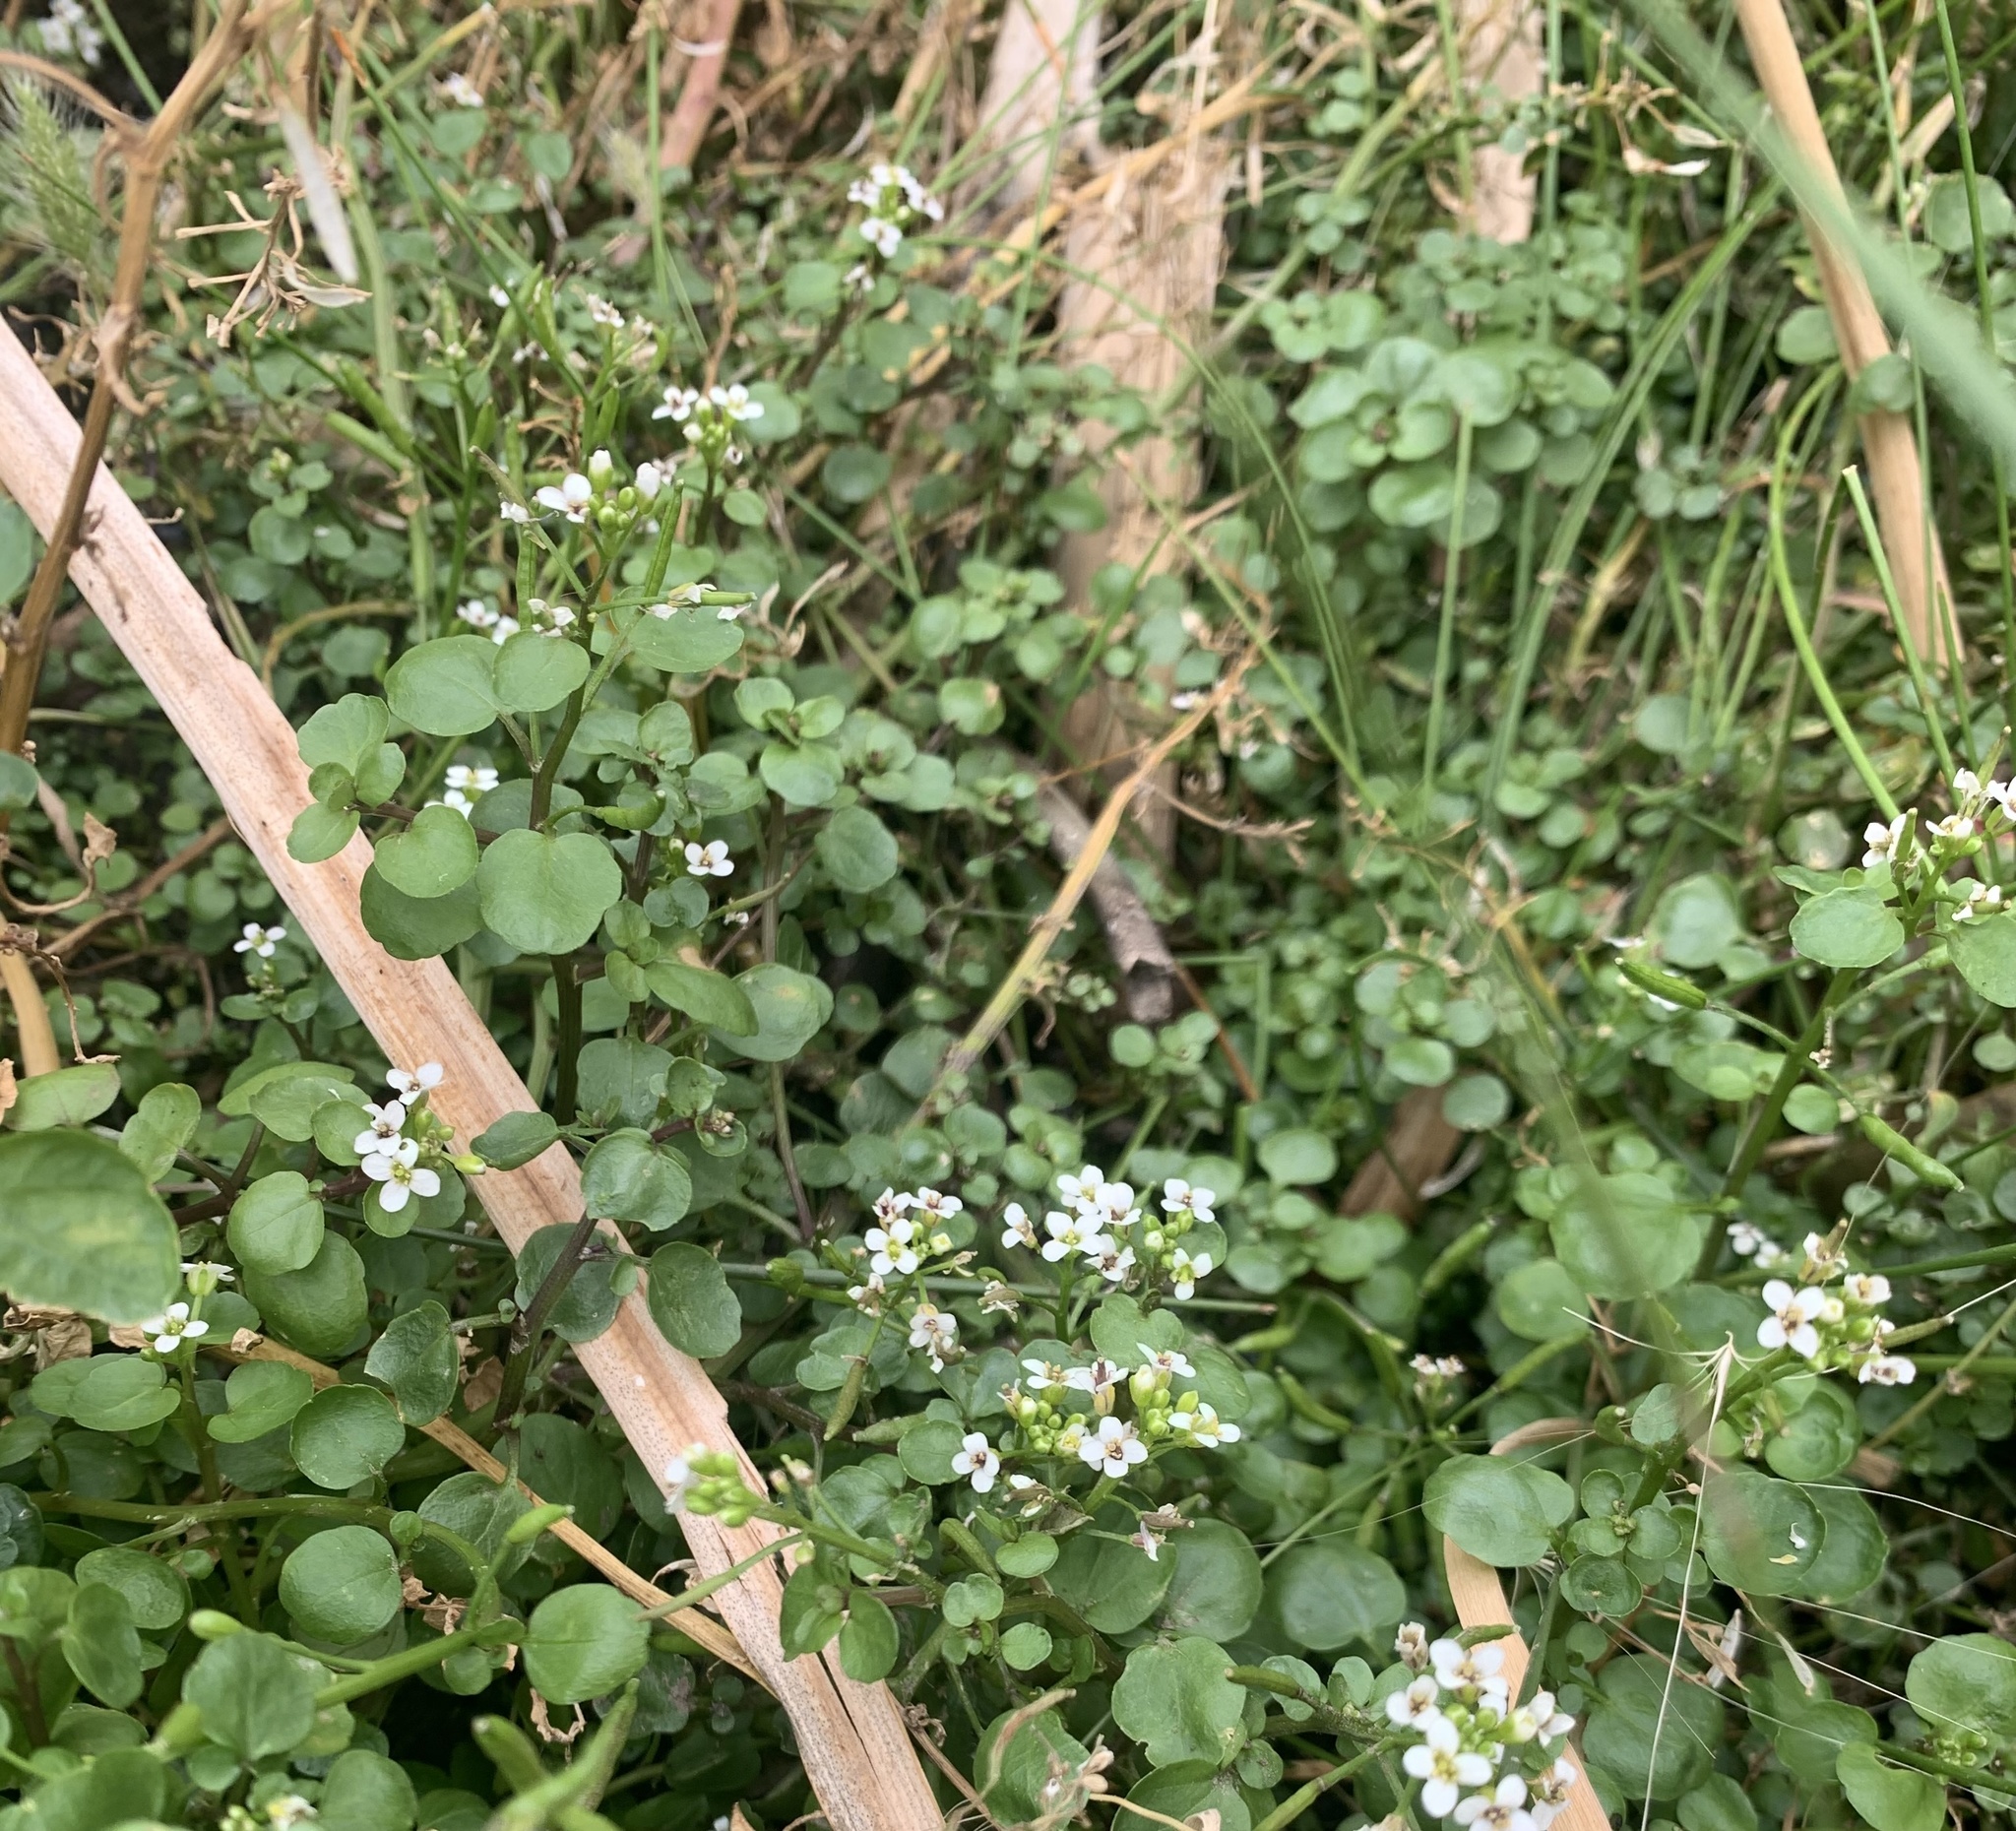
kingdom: Plantae
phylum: Tracheophyta
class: Magnoliopsida
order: Brassicales
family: Brassicaceae
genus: Nasturtium
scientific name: Nasturtium officinale
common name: Watercress
